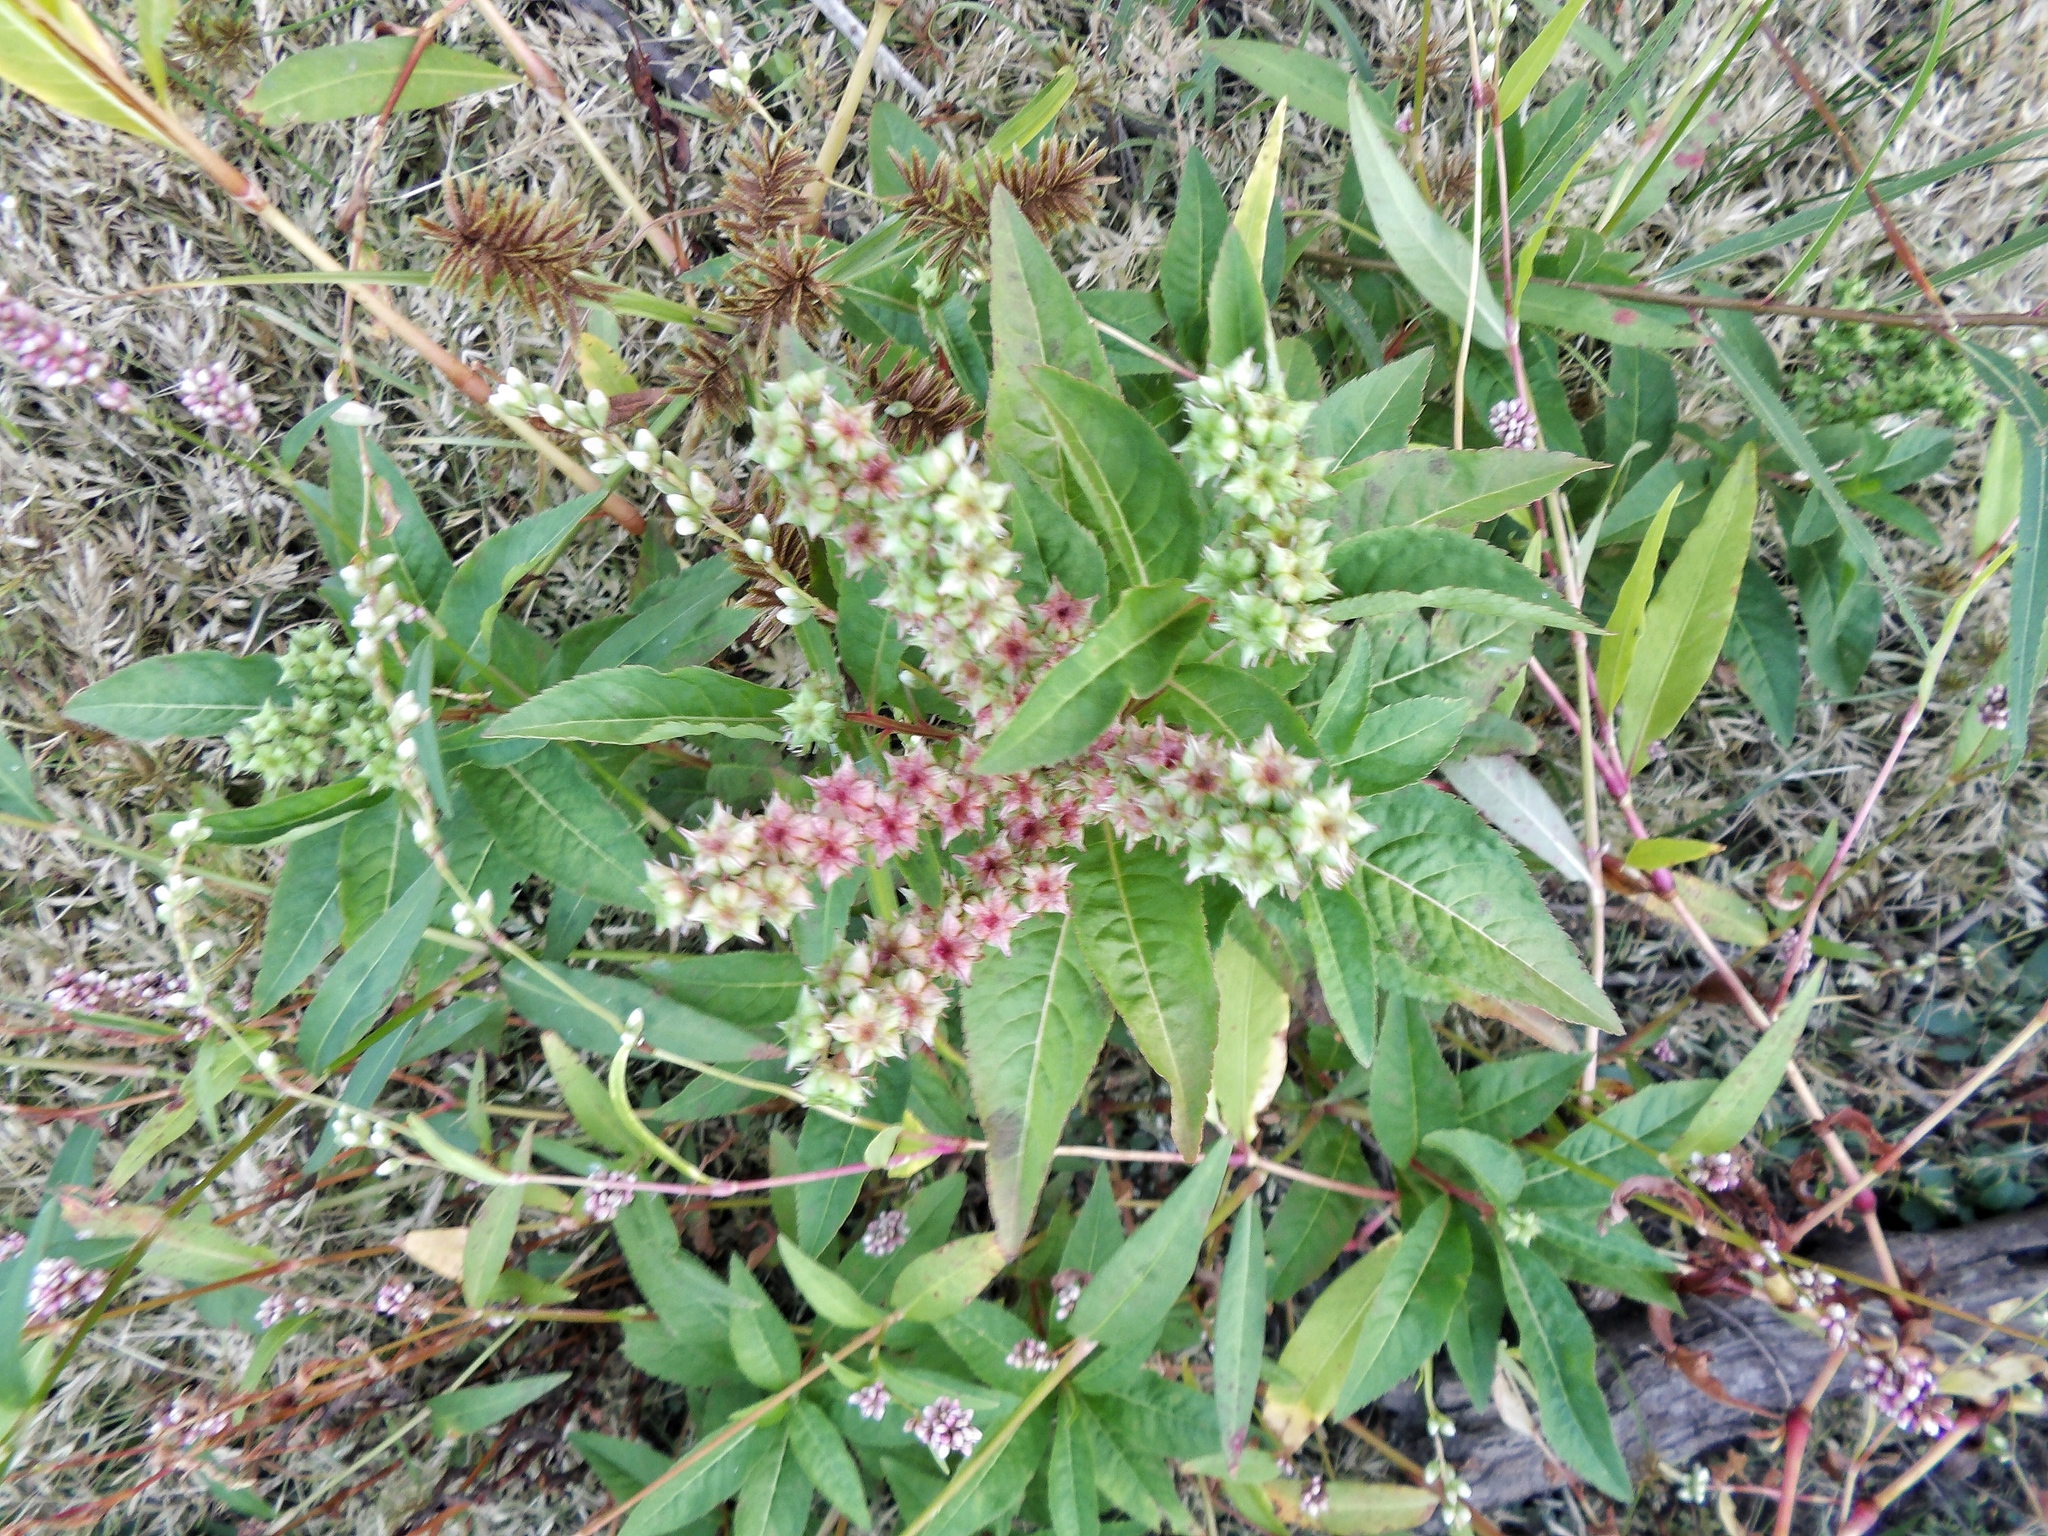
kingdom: Plantae
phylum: Tracheophyta
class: Magnoliopsida
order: Saxifragales
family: Penthoraceae
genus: Penthorum
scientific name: Penthorum sedoides
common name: Ditch stonecrop
